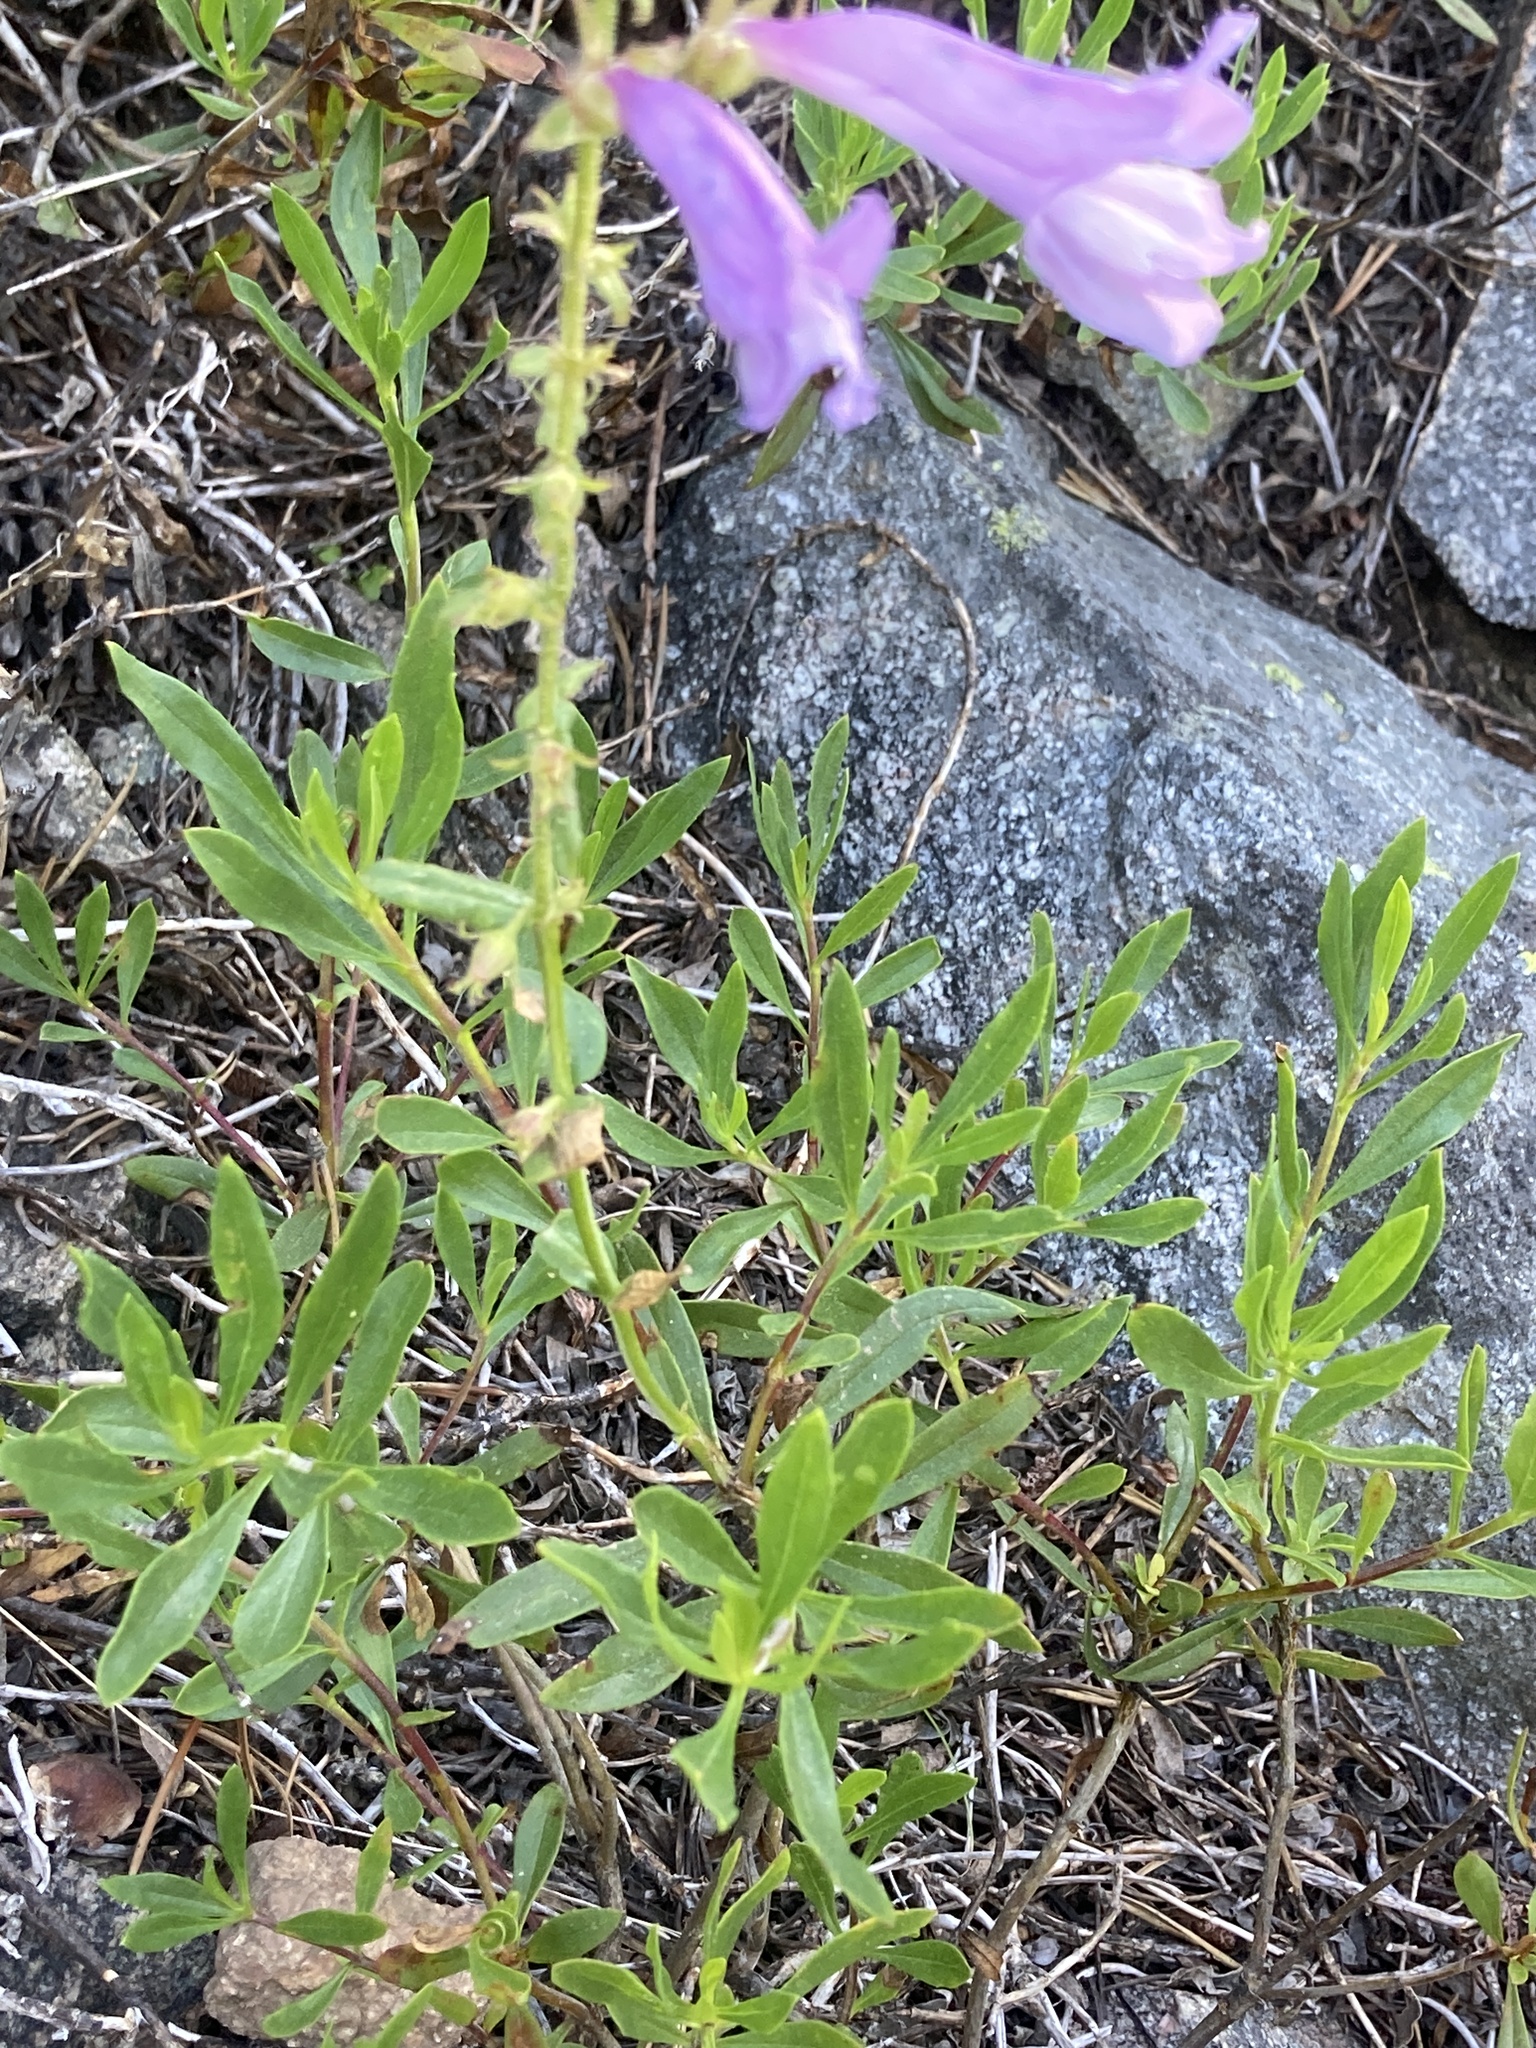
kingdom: Plantae
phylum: Tracheophyta
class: Magnoliopsida
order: Lamiales
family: Plantaginaceae
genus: Penstemon
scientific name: Penstemon fruticosus
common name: Bush penstemon
